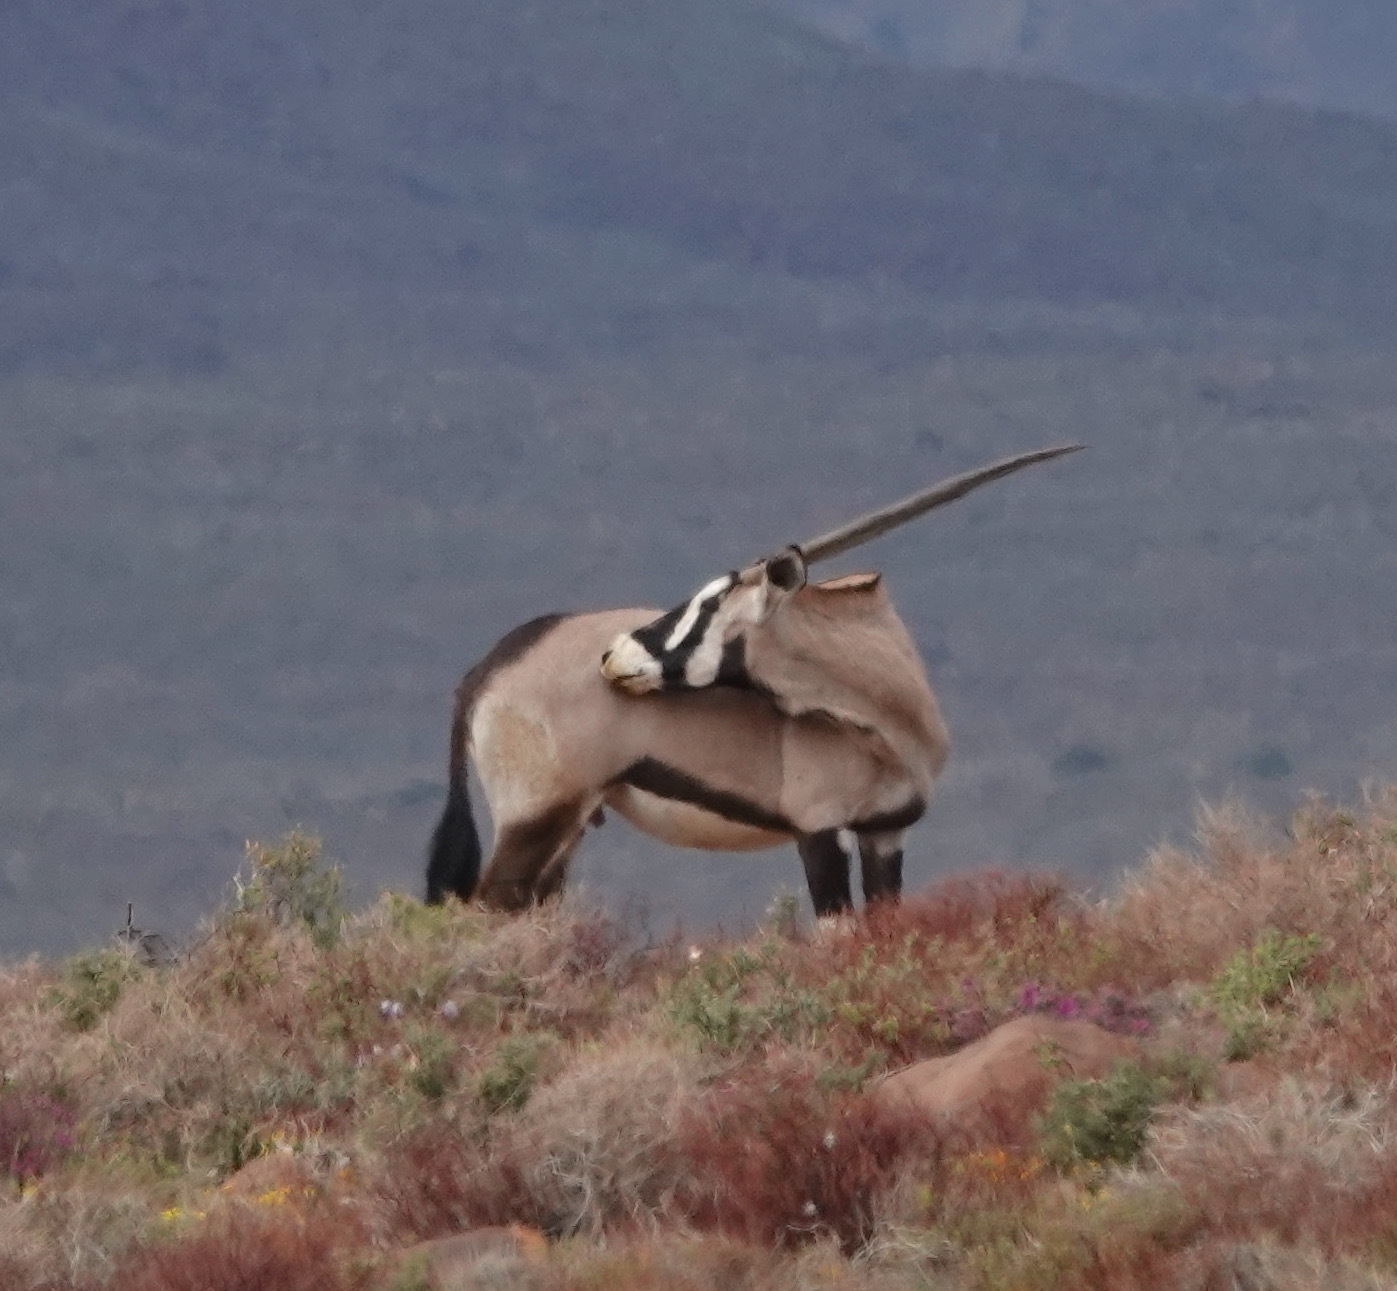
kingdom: Animalia
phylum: Chordata
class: Mammalia
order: Artiodactyla
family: Bovidae
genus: Oryx
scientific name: Oryx gazella
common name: Gemsbok
